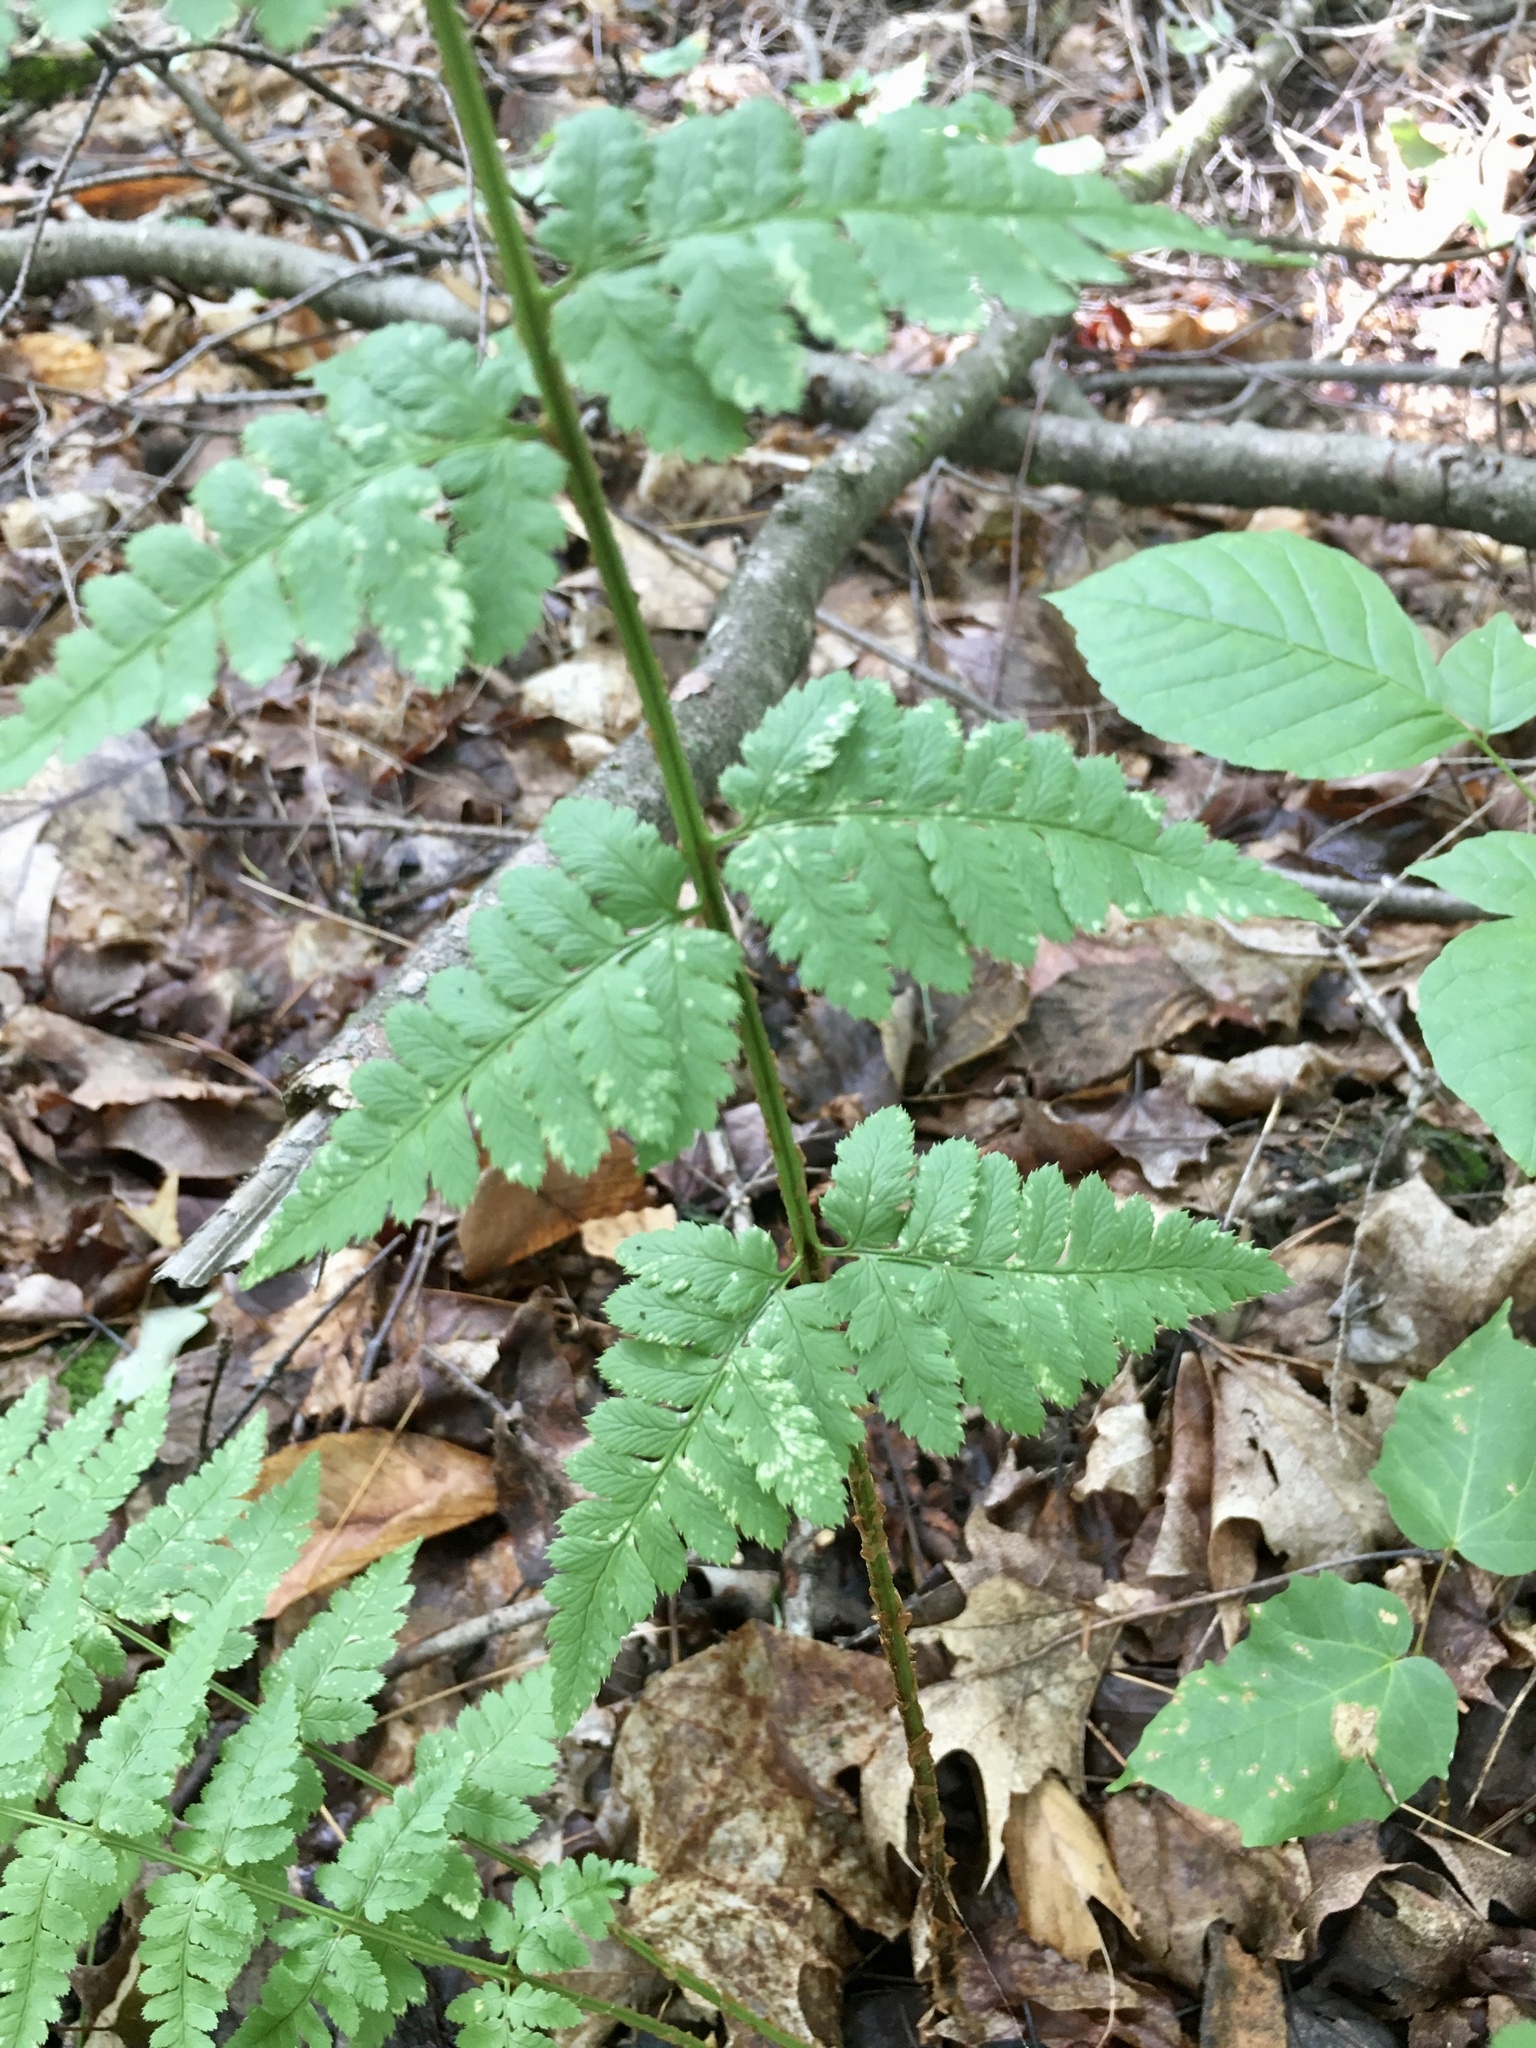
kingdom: Plantae
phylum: Tracheophyta
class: Polypodiopsida
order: Polypodiales
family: Dryopteridaceae
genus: Dryopteris
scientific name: Dryopteris cristata
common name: Crested wood fern
